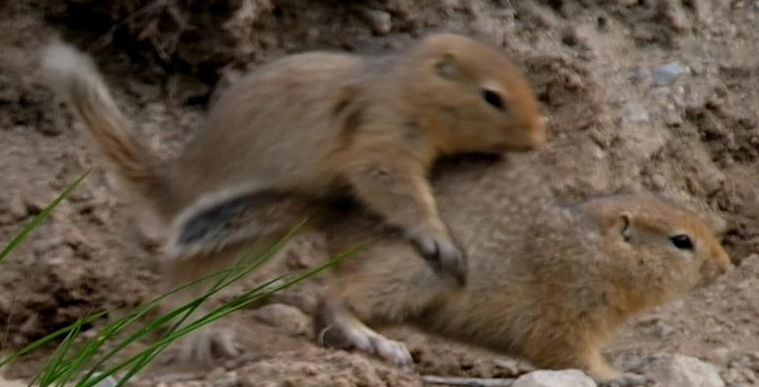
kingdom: Animalia
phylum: Chordata
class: Mammalia
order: Rodentia
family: Sciuridae
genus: Urocitellus
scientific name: Urocitellus parryii
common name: Arctic ground squirrel
